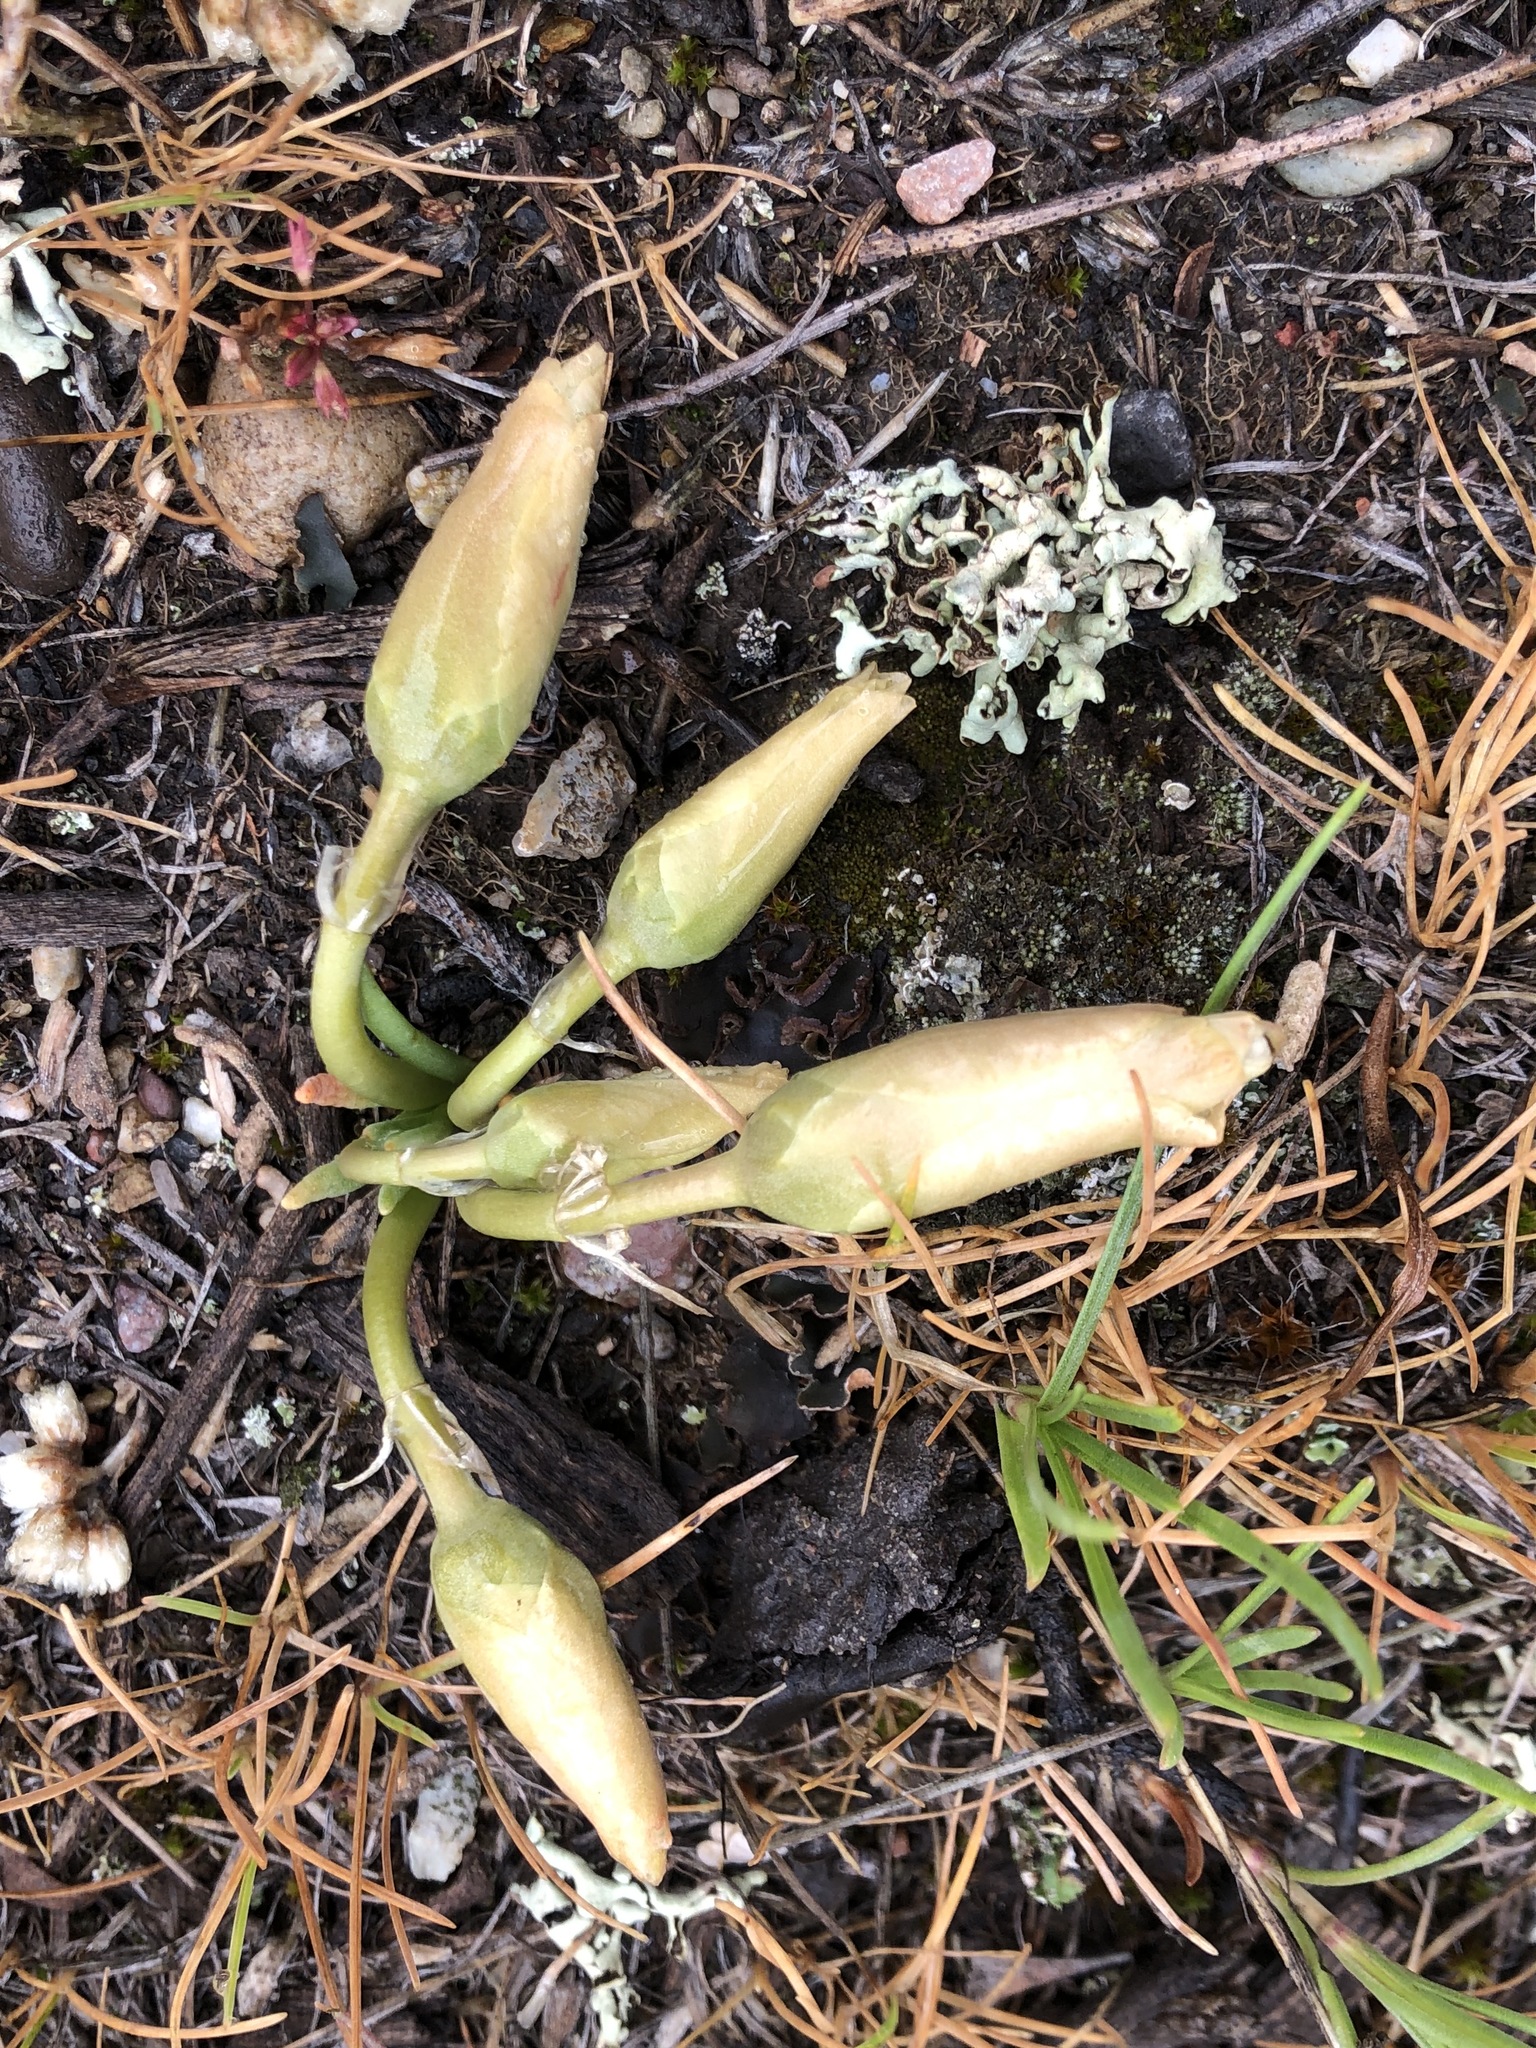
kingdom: Plantae
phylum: Tracheophyta
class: Magnoliopsida
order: Caryophyllales
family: Montiaceae
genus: Lewisia
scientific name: Lewisia rediviva
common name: Bitter-root
